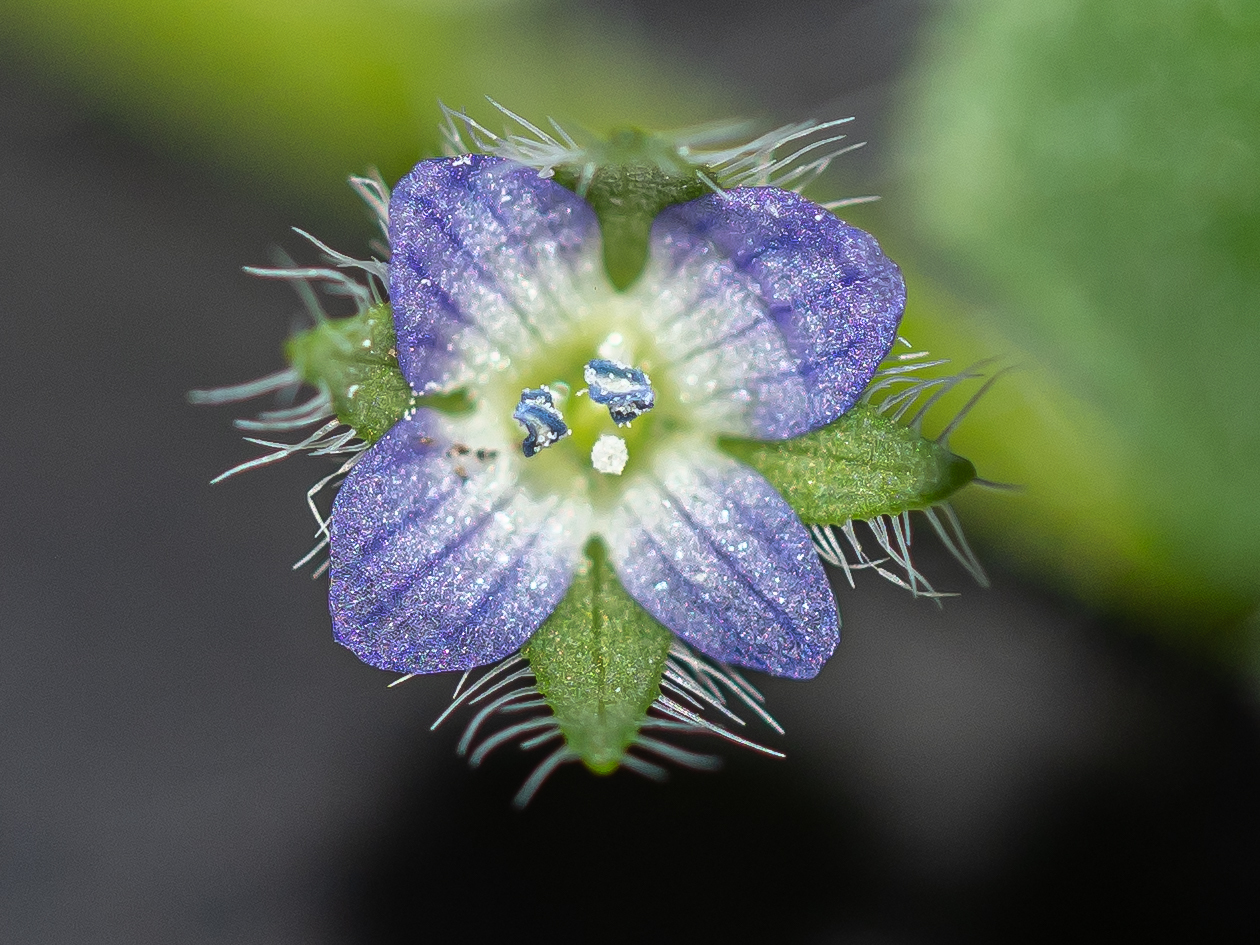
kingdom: Plantae
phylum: Tracheophyta
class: Magnoliopsida
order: Lamiales
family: Plantaginaceae
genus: Veronica
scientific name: Veronica hederifolia
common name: Ivy-leaved speedwell
